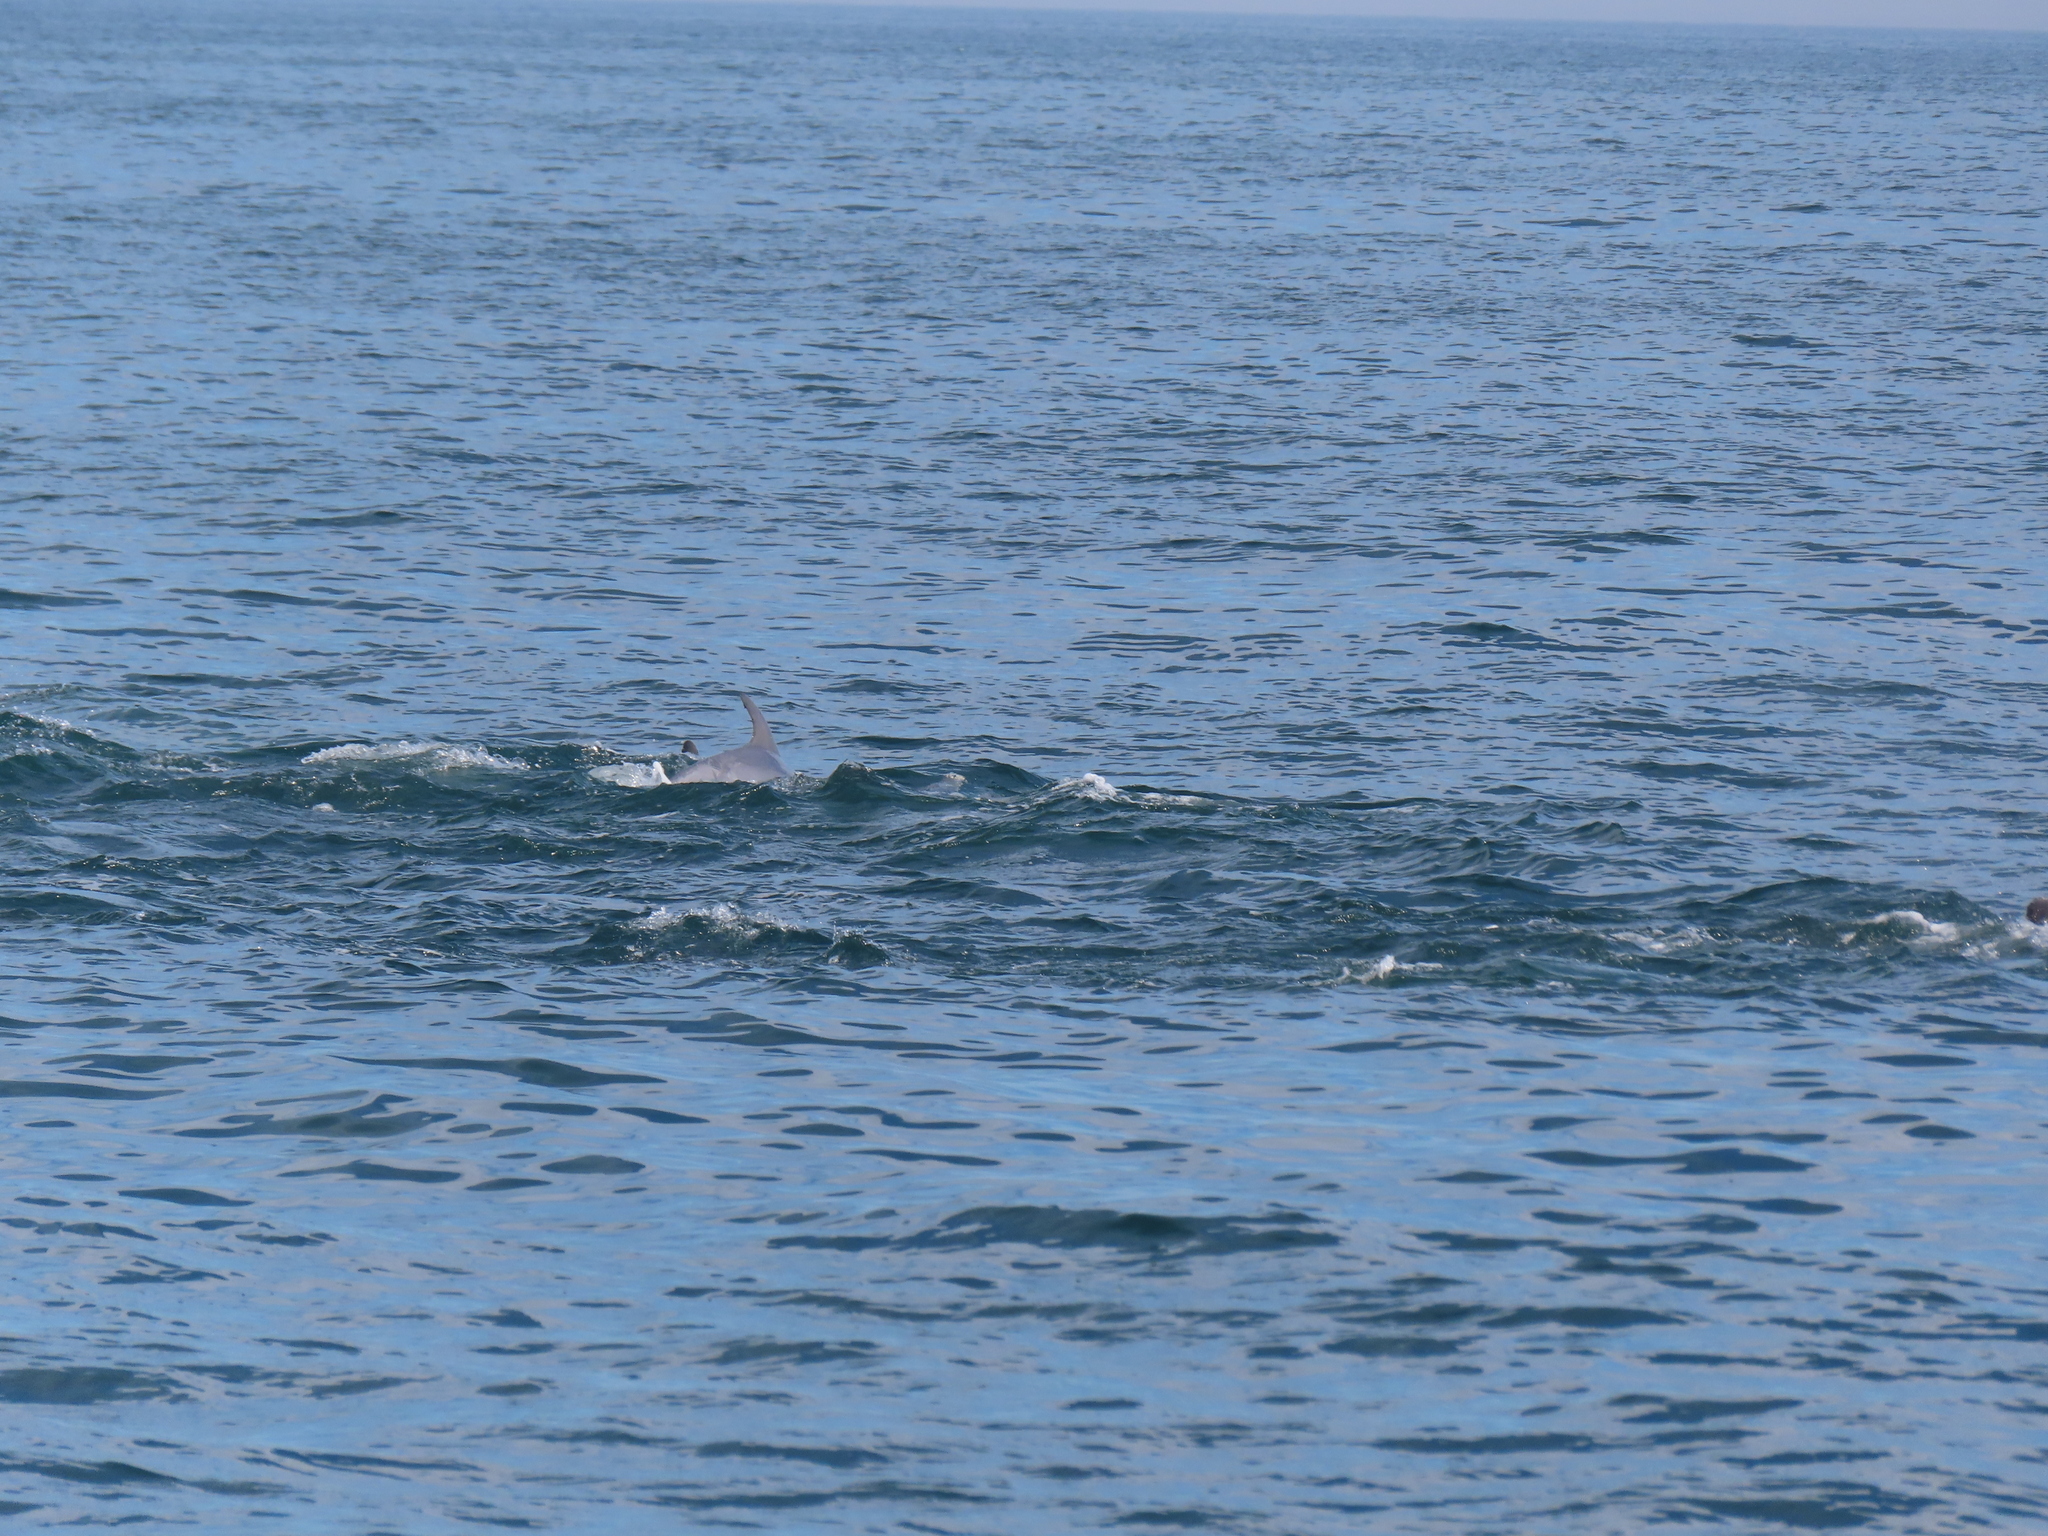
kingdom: Animalia
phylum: Chordata
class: Mammalia
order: Cetacea
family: Delphinidae
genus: Tursiops
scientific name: Tursiops truncatus
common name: Bottlenose dolphin
